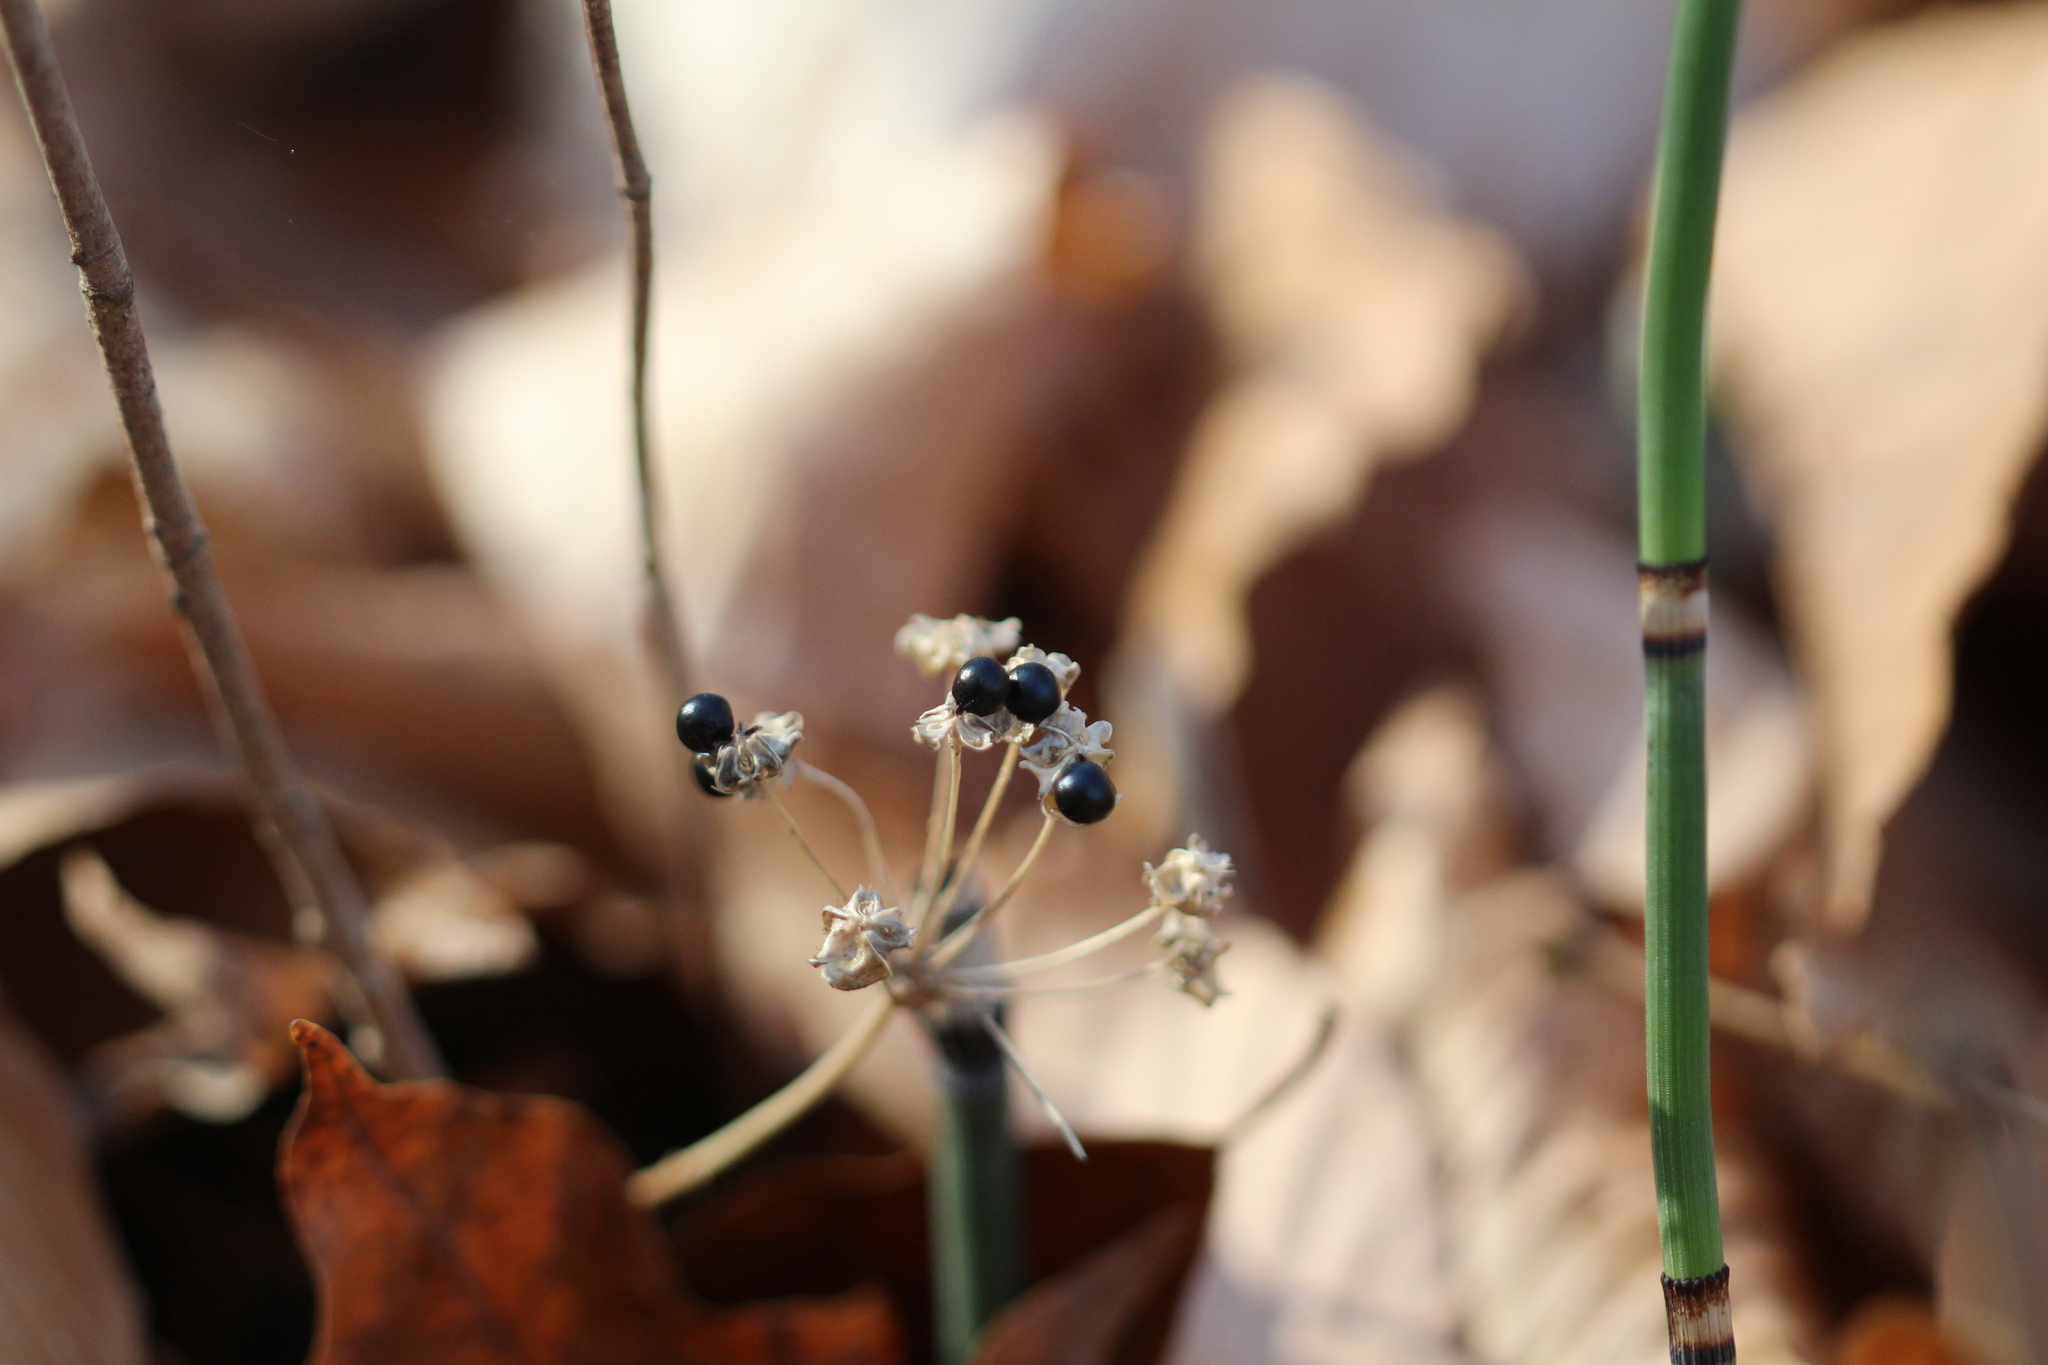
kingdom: Plantae
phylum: Tracheophyta
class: Liliopsida
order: Asparagales
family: Amaryllidaceae
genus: Allium
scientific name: Allium tricoccum
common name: Ramp
